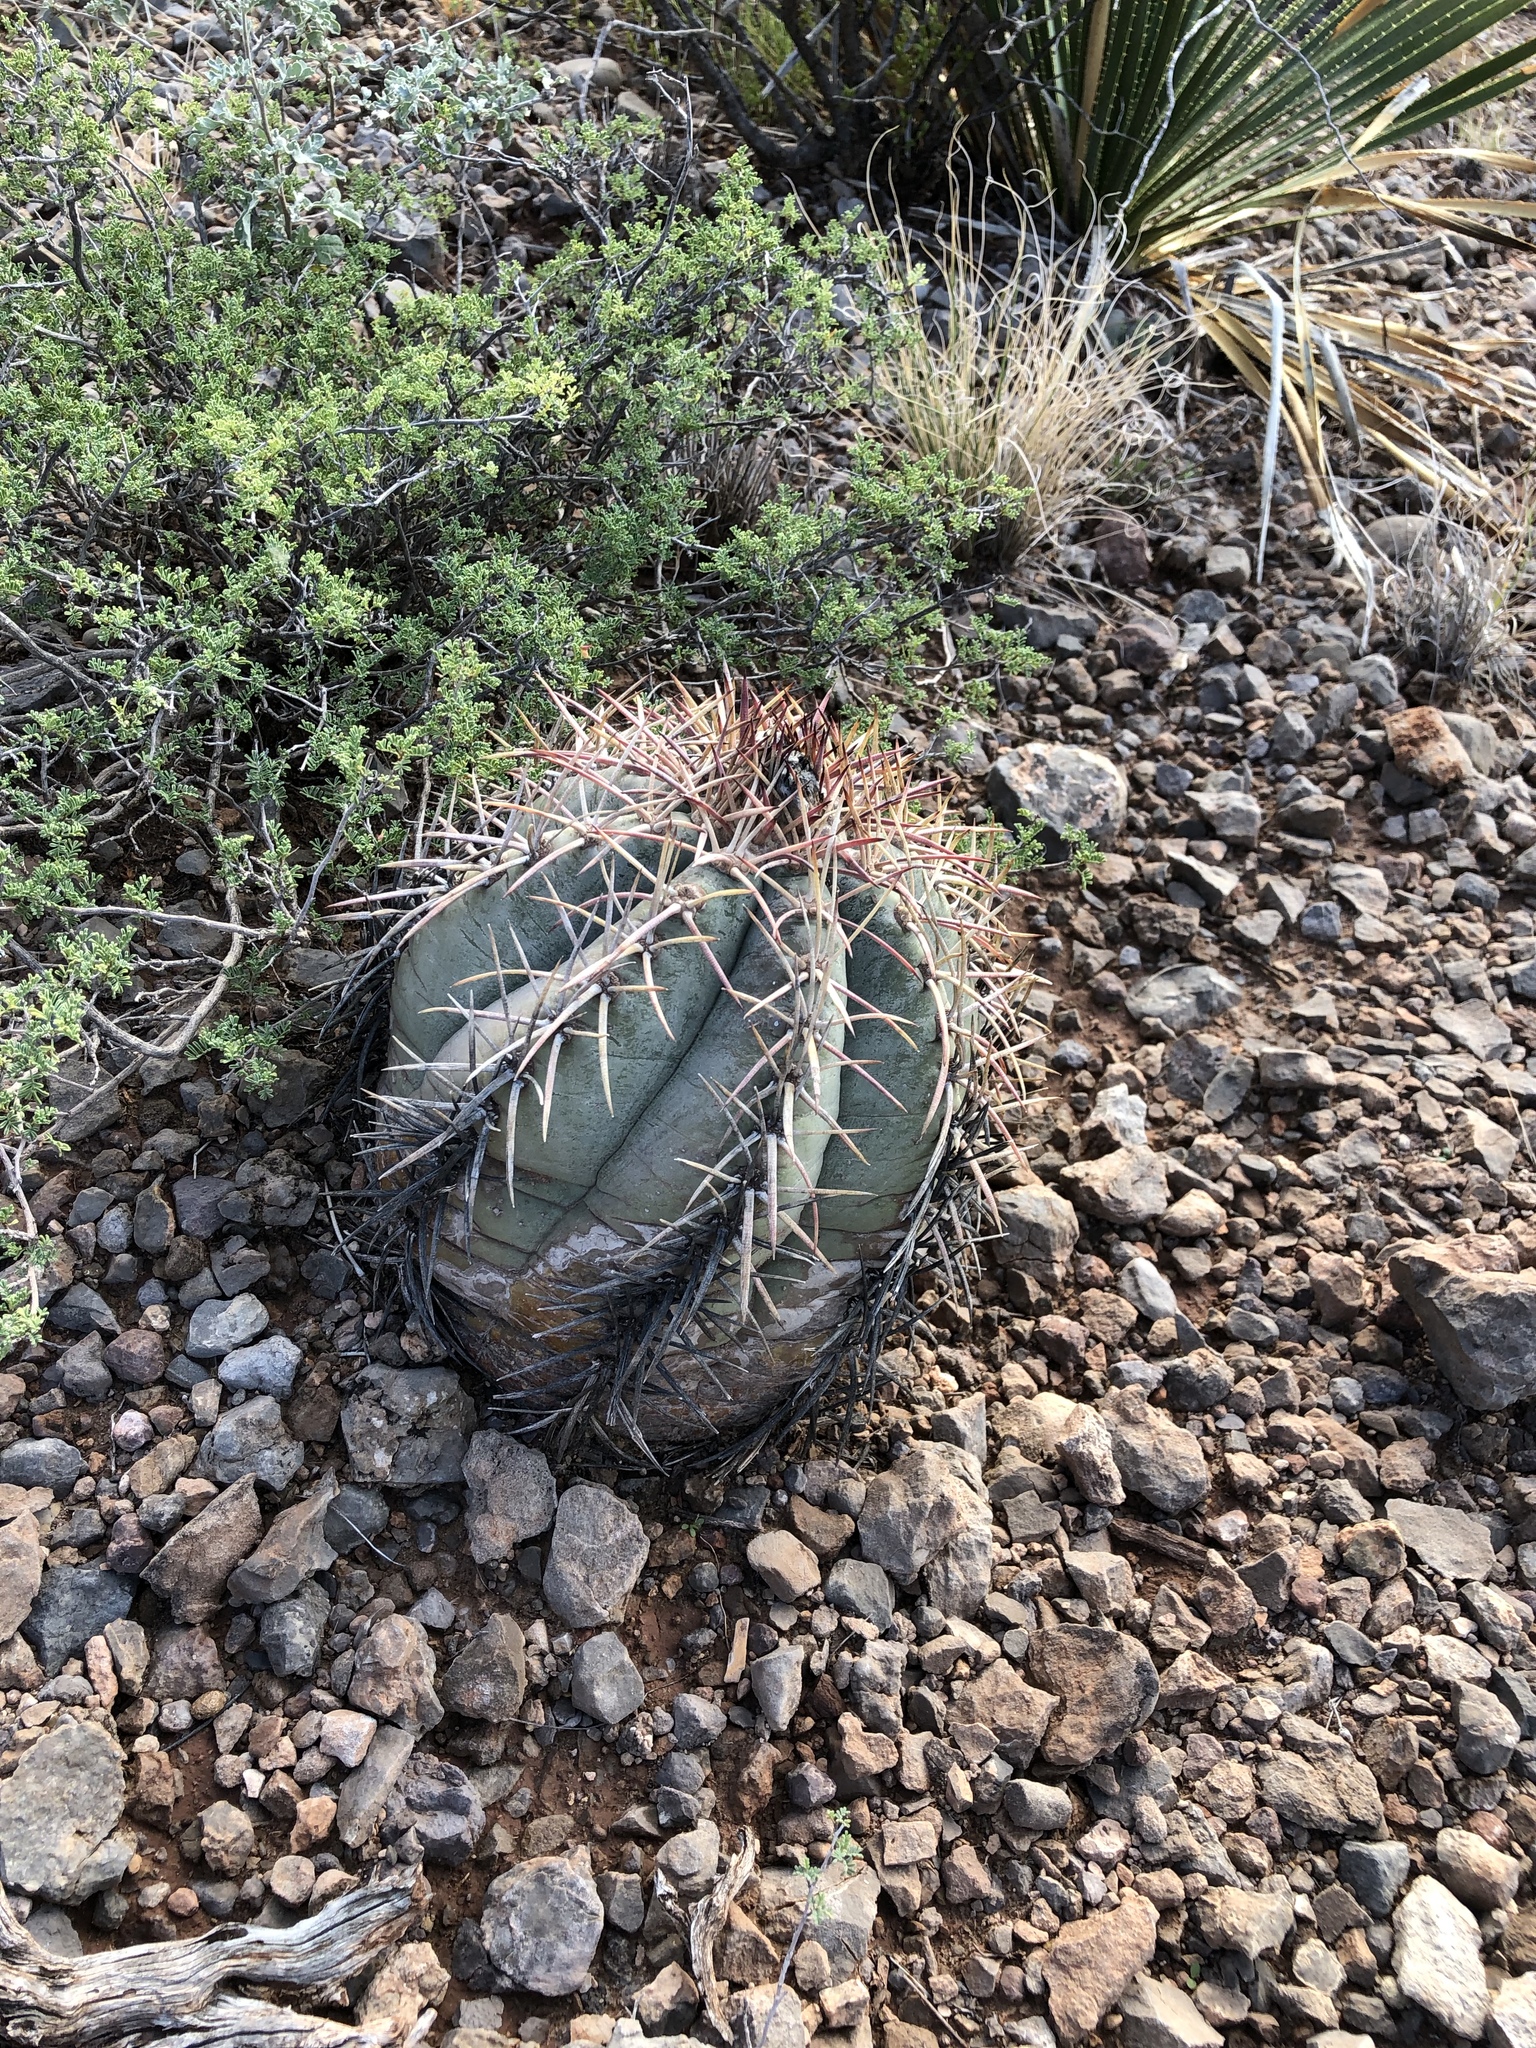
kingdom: Plantae
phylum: Tracheophyta
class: Magnoliopsida
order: Caryophyllales
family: Cactaceae
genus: Echinocactus
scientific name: Echinocactus horizonthalonius
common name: Devilshead
